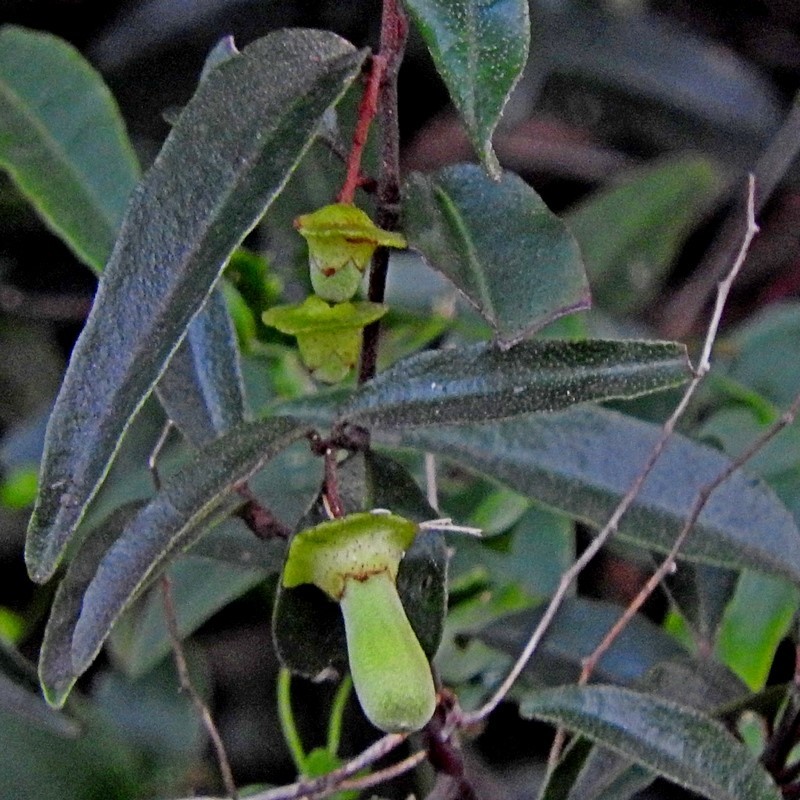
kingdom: Plantae
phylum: Tracheophyta
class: Magnoliopsida
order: Sapindales
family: Rutaceae
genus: Correa
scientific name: Correa baeuerlenii
